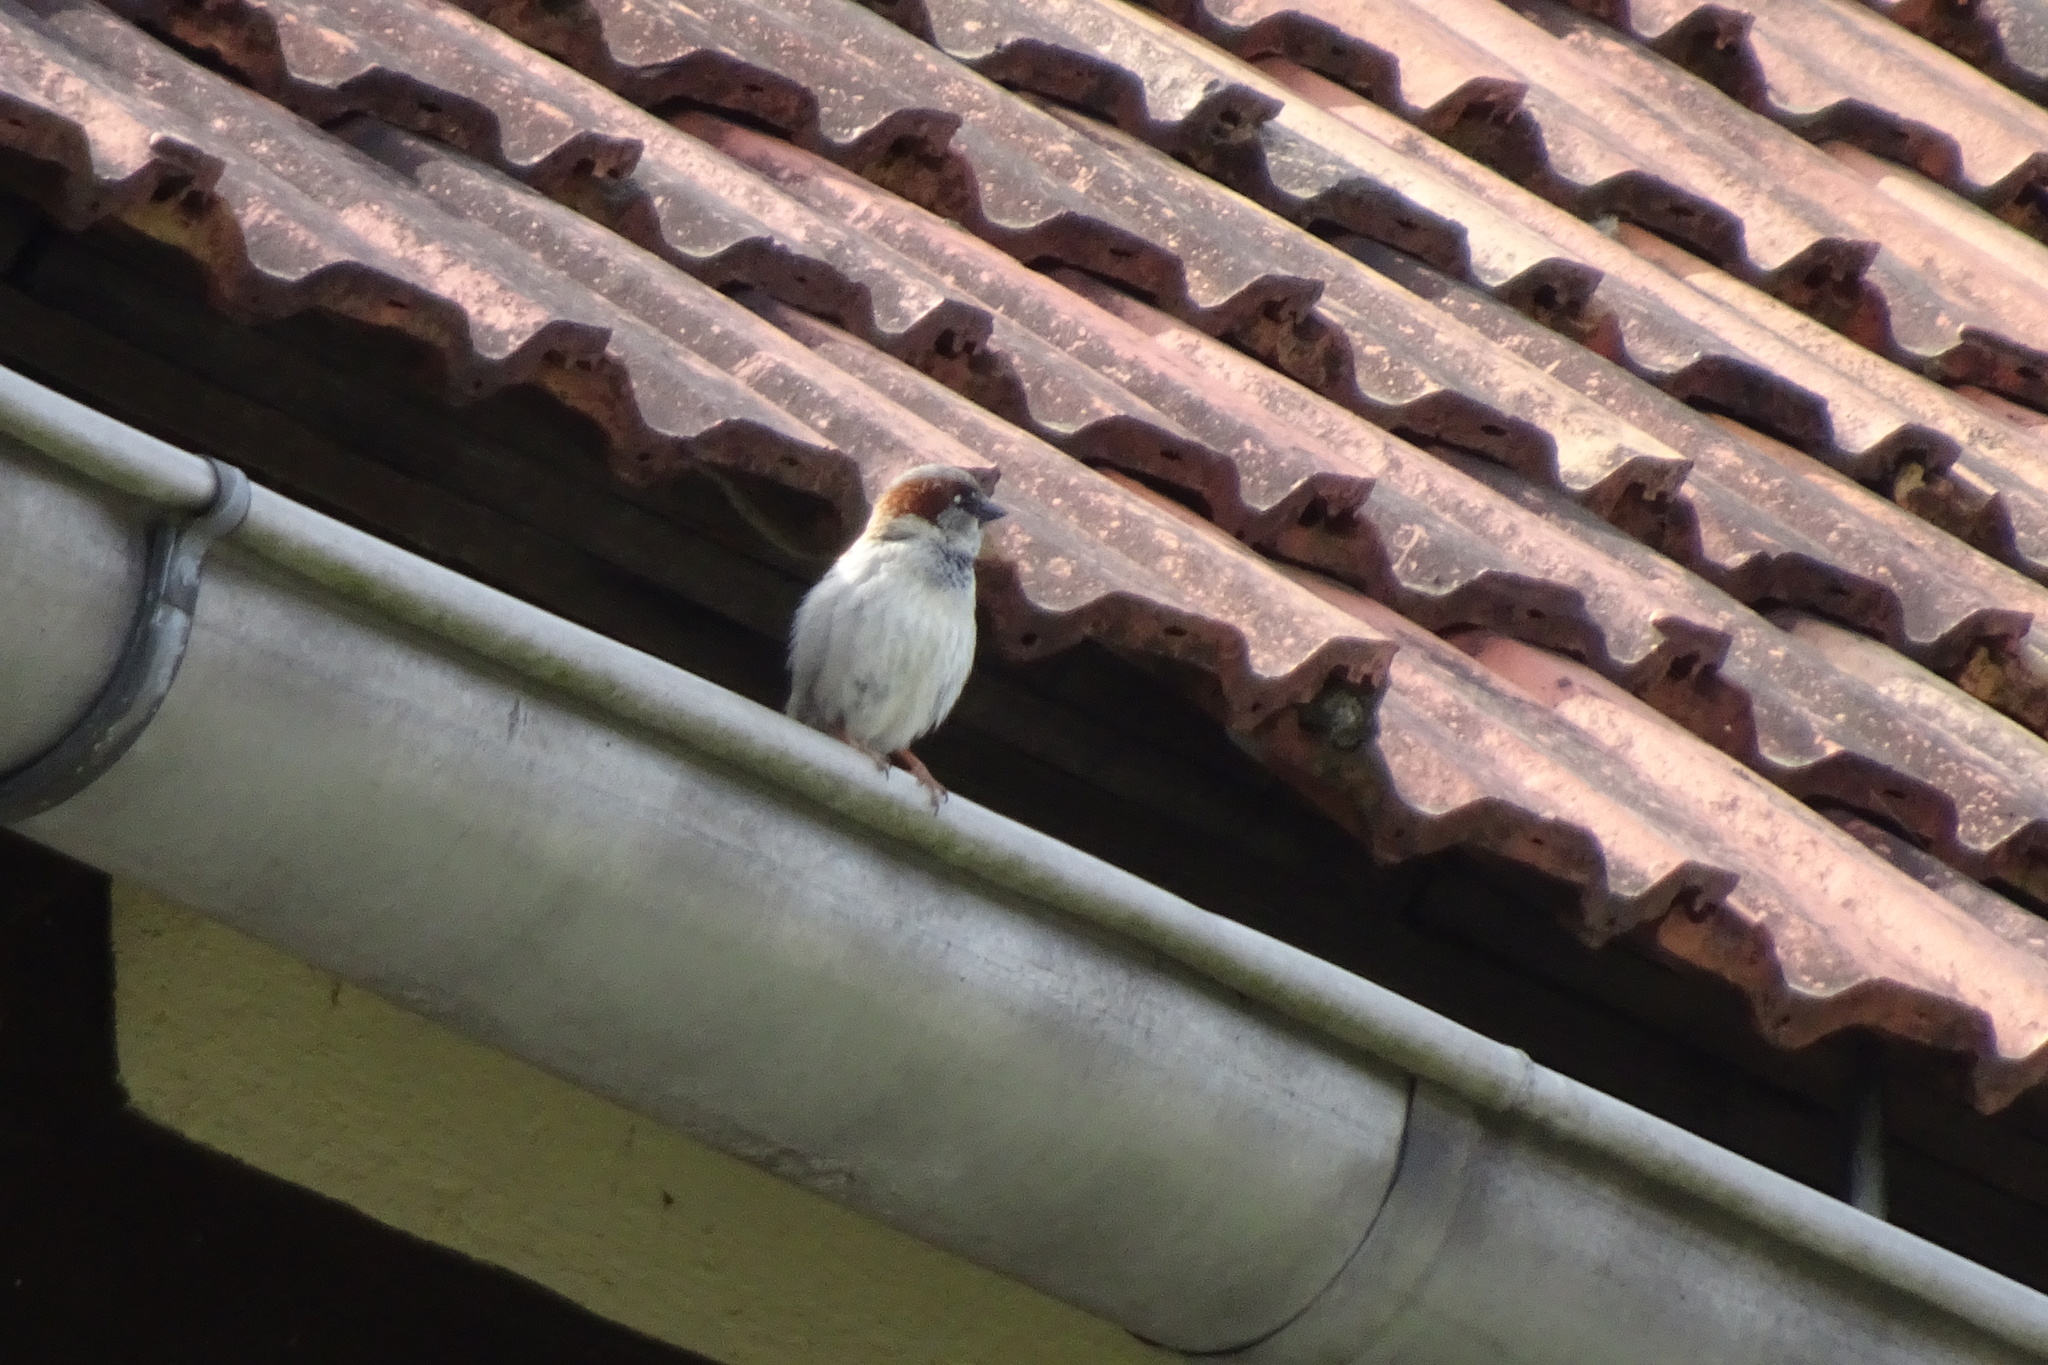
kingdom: Animalia
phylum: Chordata
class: Aves
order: Passeriformes
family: Passeridae
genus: Passer
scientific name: Passer domesticus
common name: House sparrow
